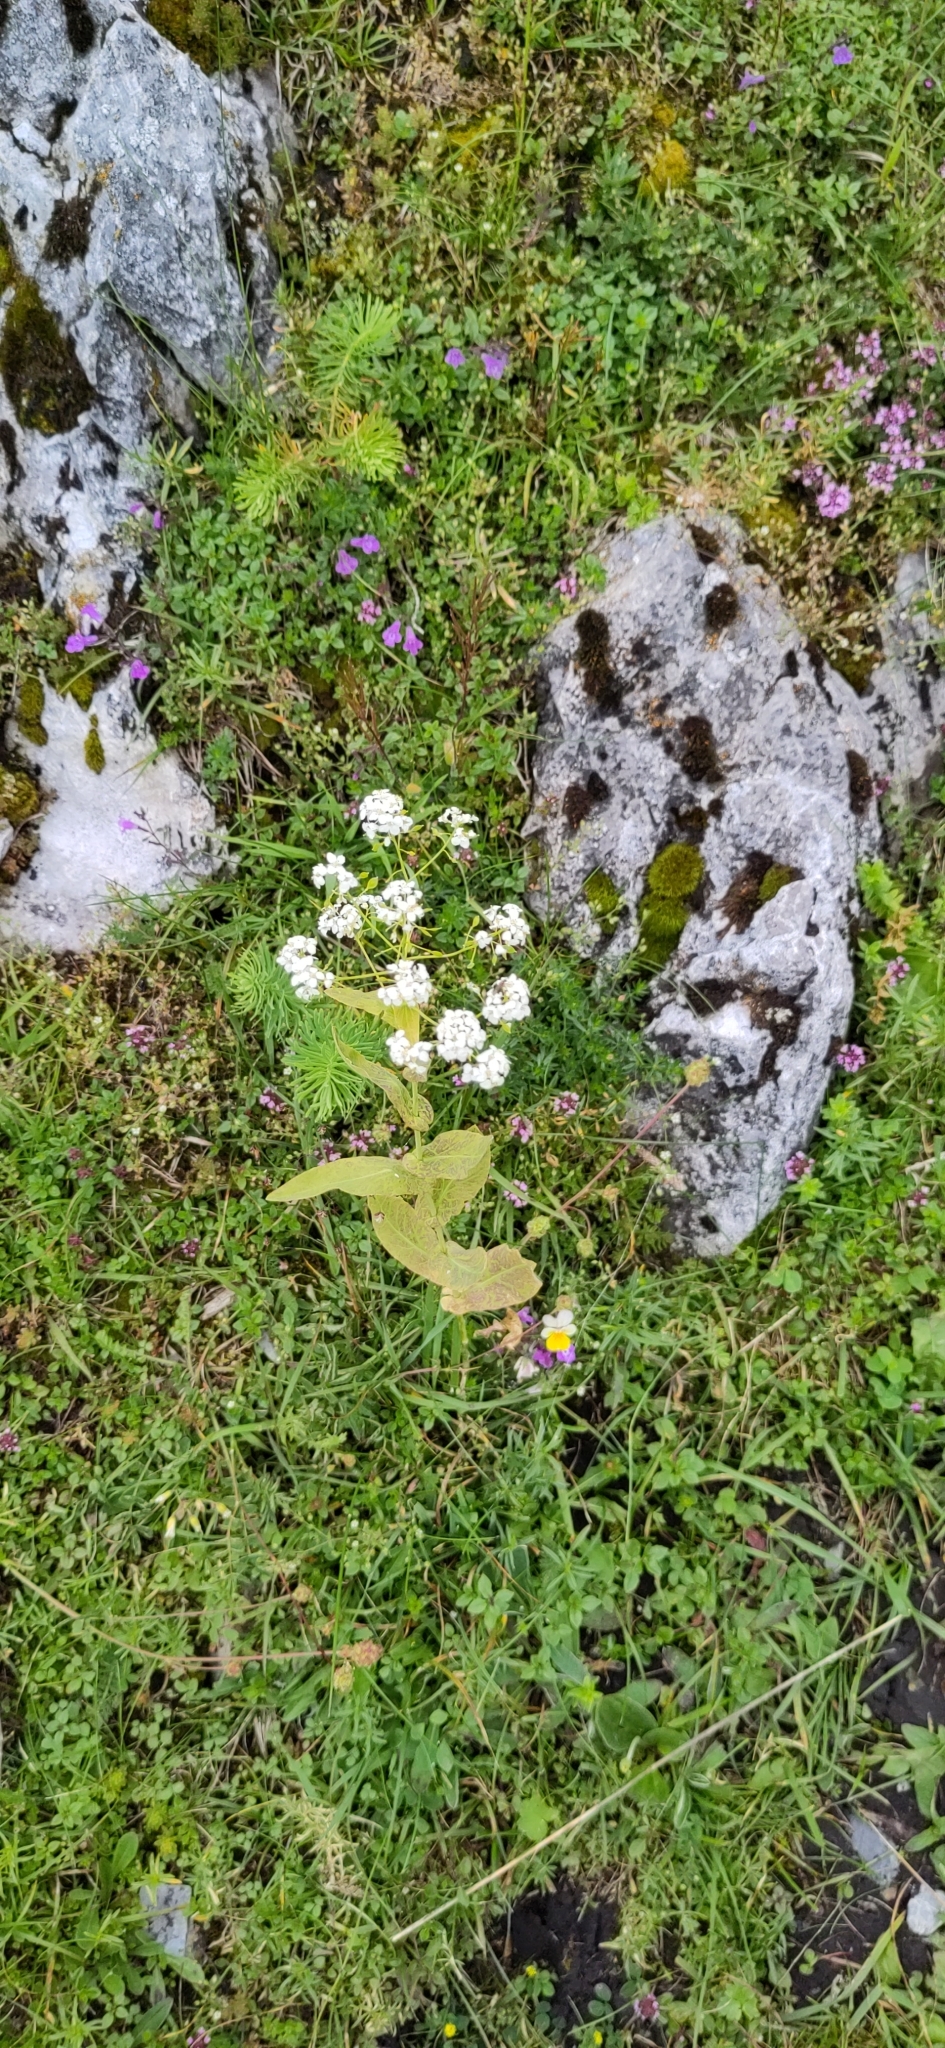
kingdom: Plantae
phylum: Tracheophyta
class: Magnoliopsida
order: Brassicales
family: Brassicaceae
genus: Peltaria
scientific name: Peltaria alliacea
